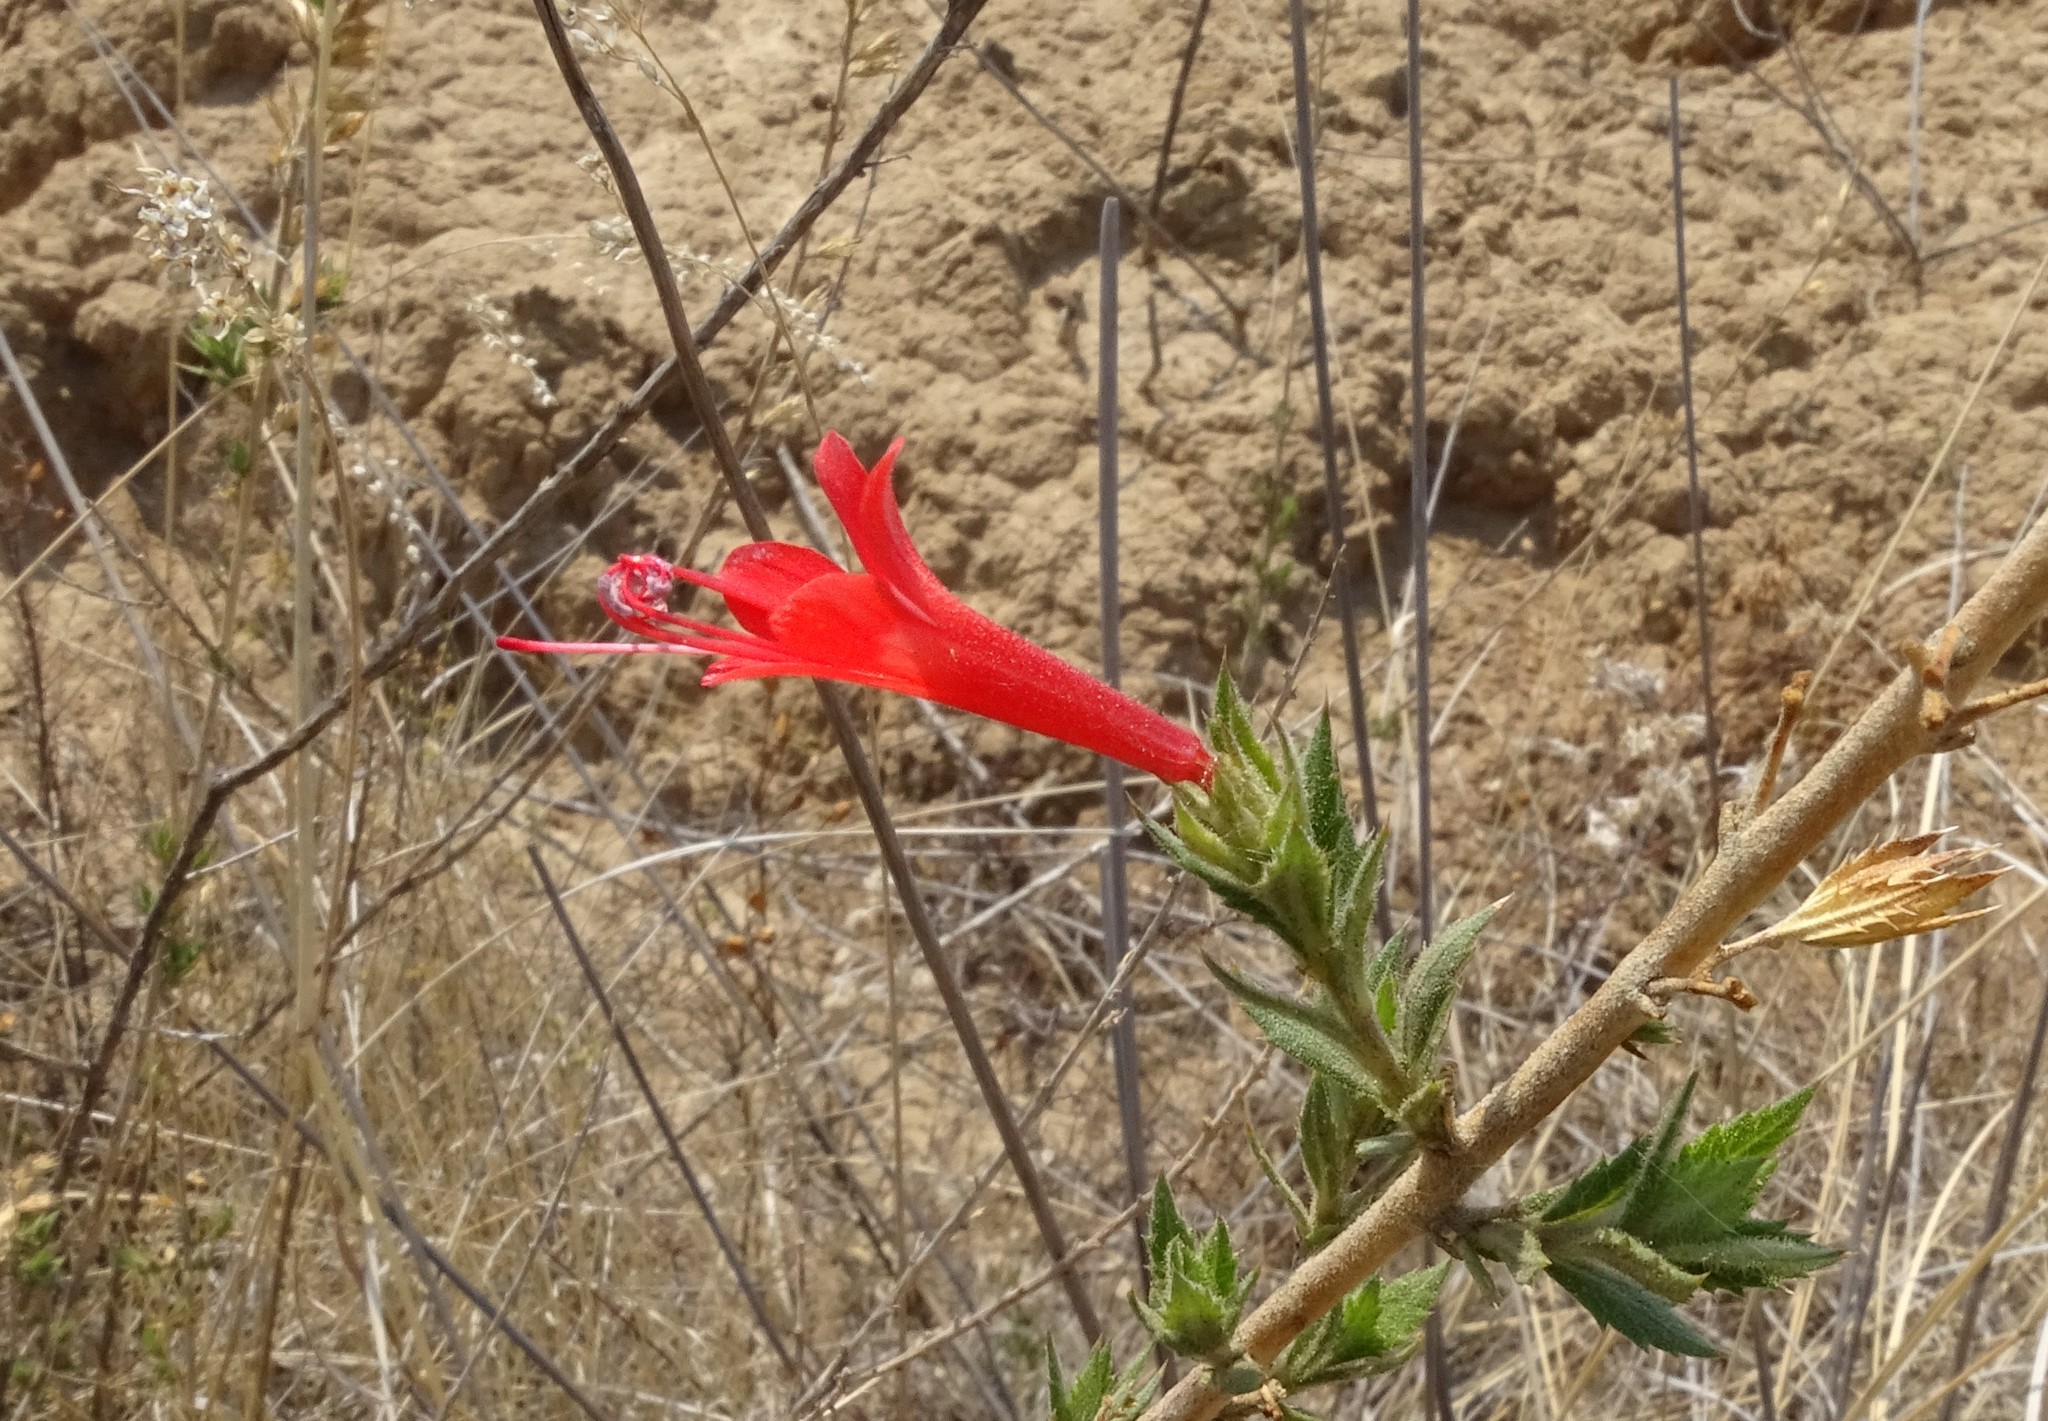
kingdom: Plantae
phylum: Tracheophyta
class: Magnoliopsida
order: Ericales
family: Polemoniaceae
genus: Loeselia
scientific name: Loeselia mexicana
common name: Mexican false calico
